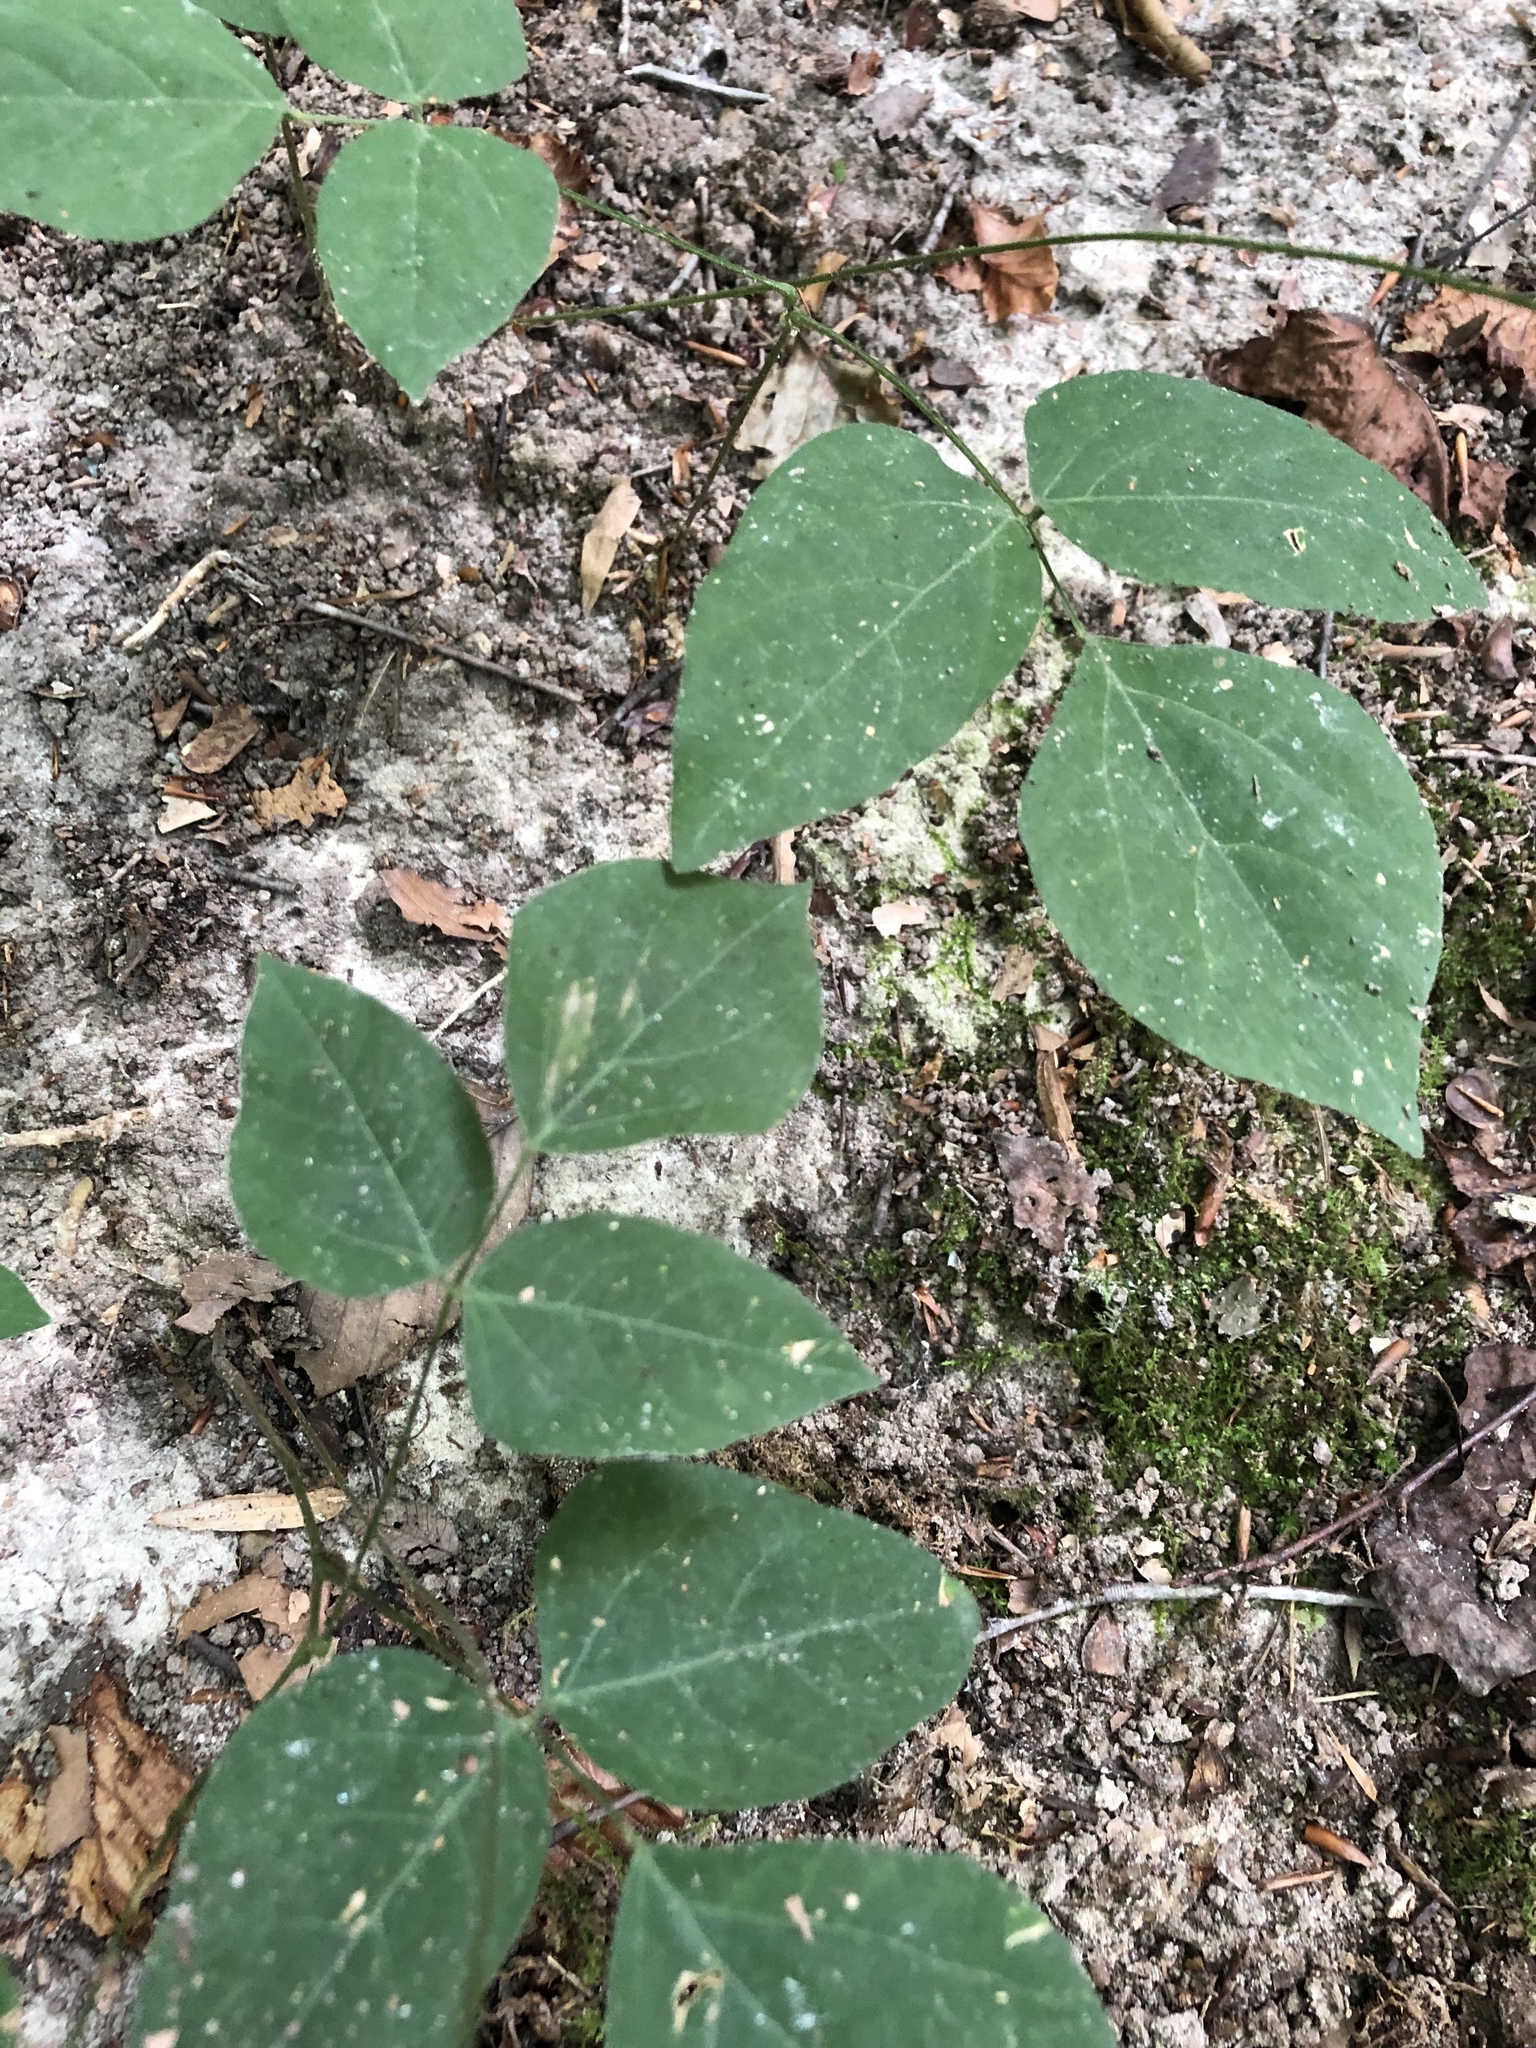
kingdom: Plantae
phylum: Tracheophyta
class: Magnoliopsida
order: Fabales
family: Fabaceae
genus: Hylodesmum
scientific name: Hylodesmum nudiflorum
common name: Bare-stemmed tick-trefoil
